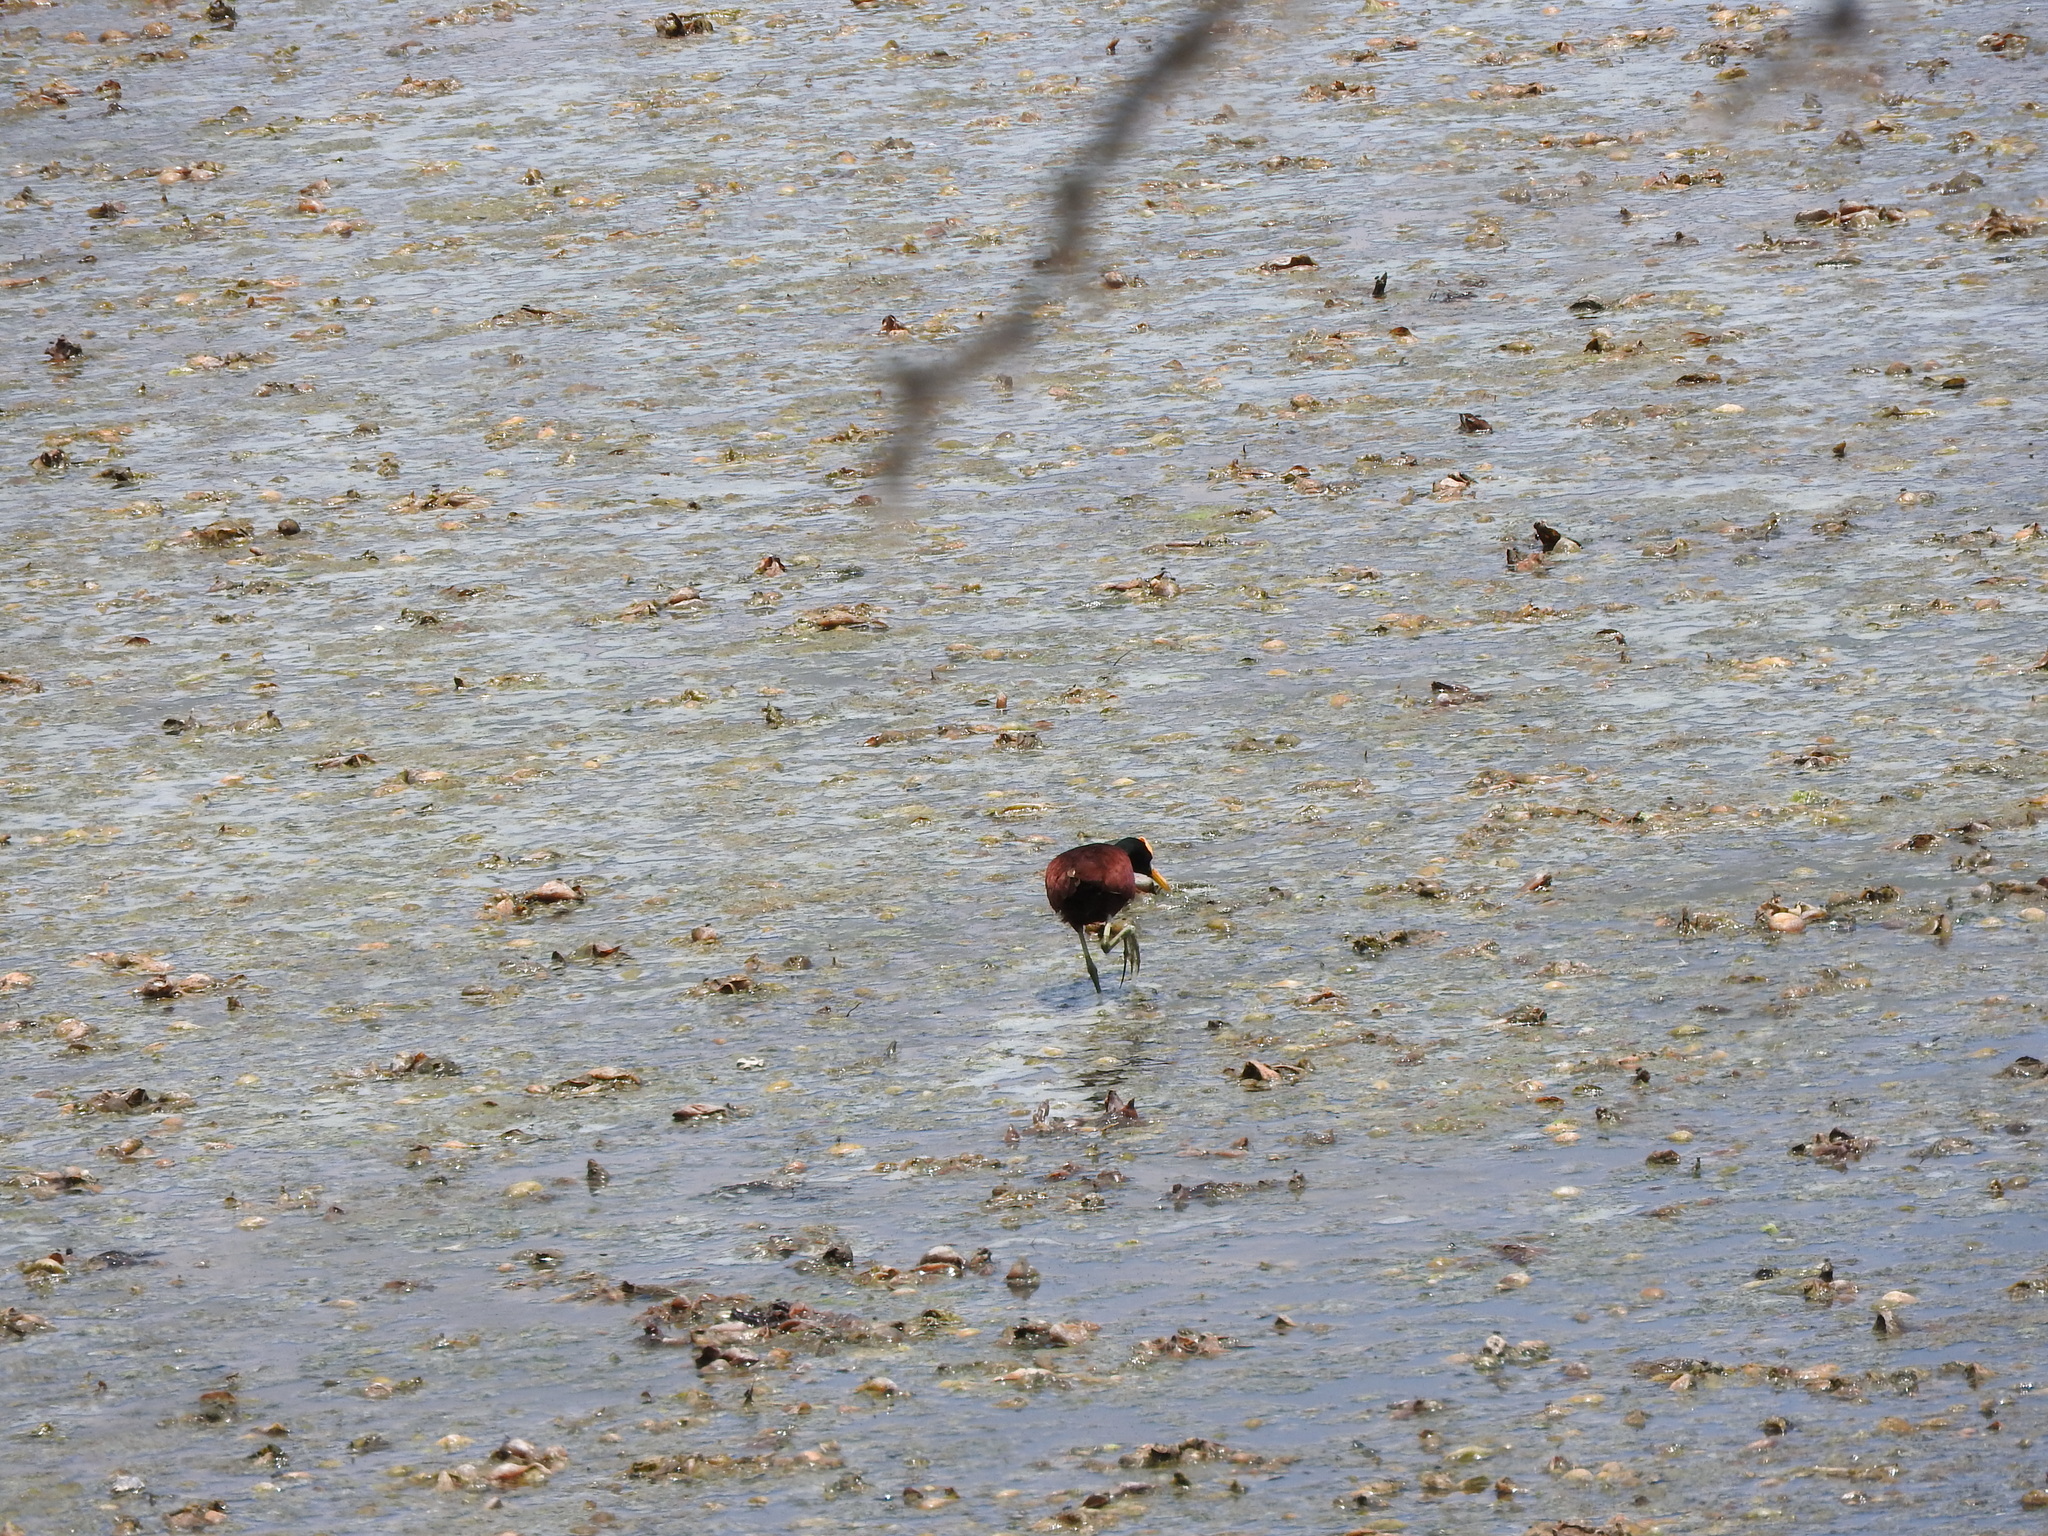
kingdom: Animalia
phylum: Chordata
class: Aves
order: Charadriiformes
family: Jacanidae
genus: Jacana
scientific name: Jacana spinosa
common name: Northern jacana
